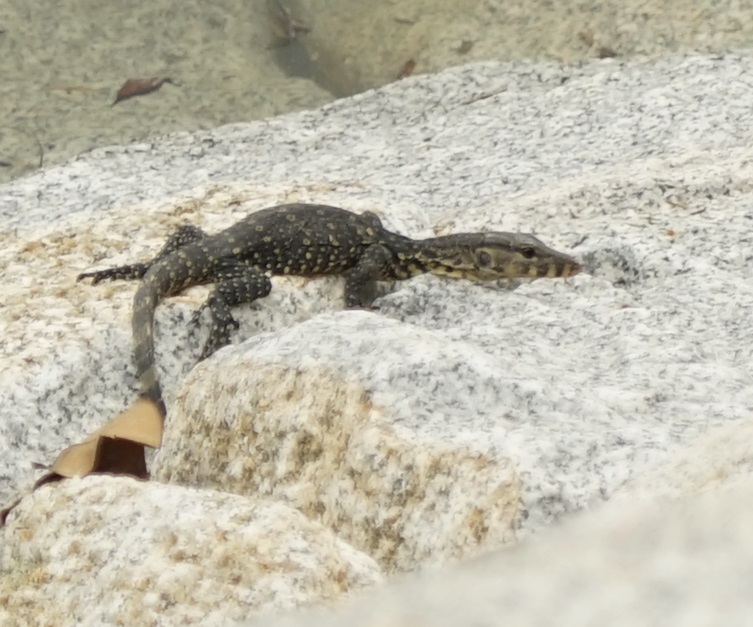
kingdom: Animalia
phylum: Chordata
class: Squamata
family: Varanidae
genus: Varanus
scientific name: Varanus salvator
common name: Common water monitor
